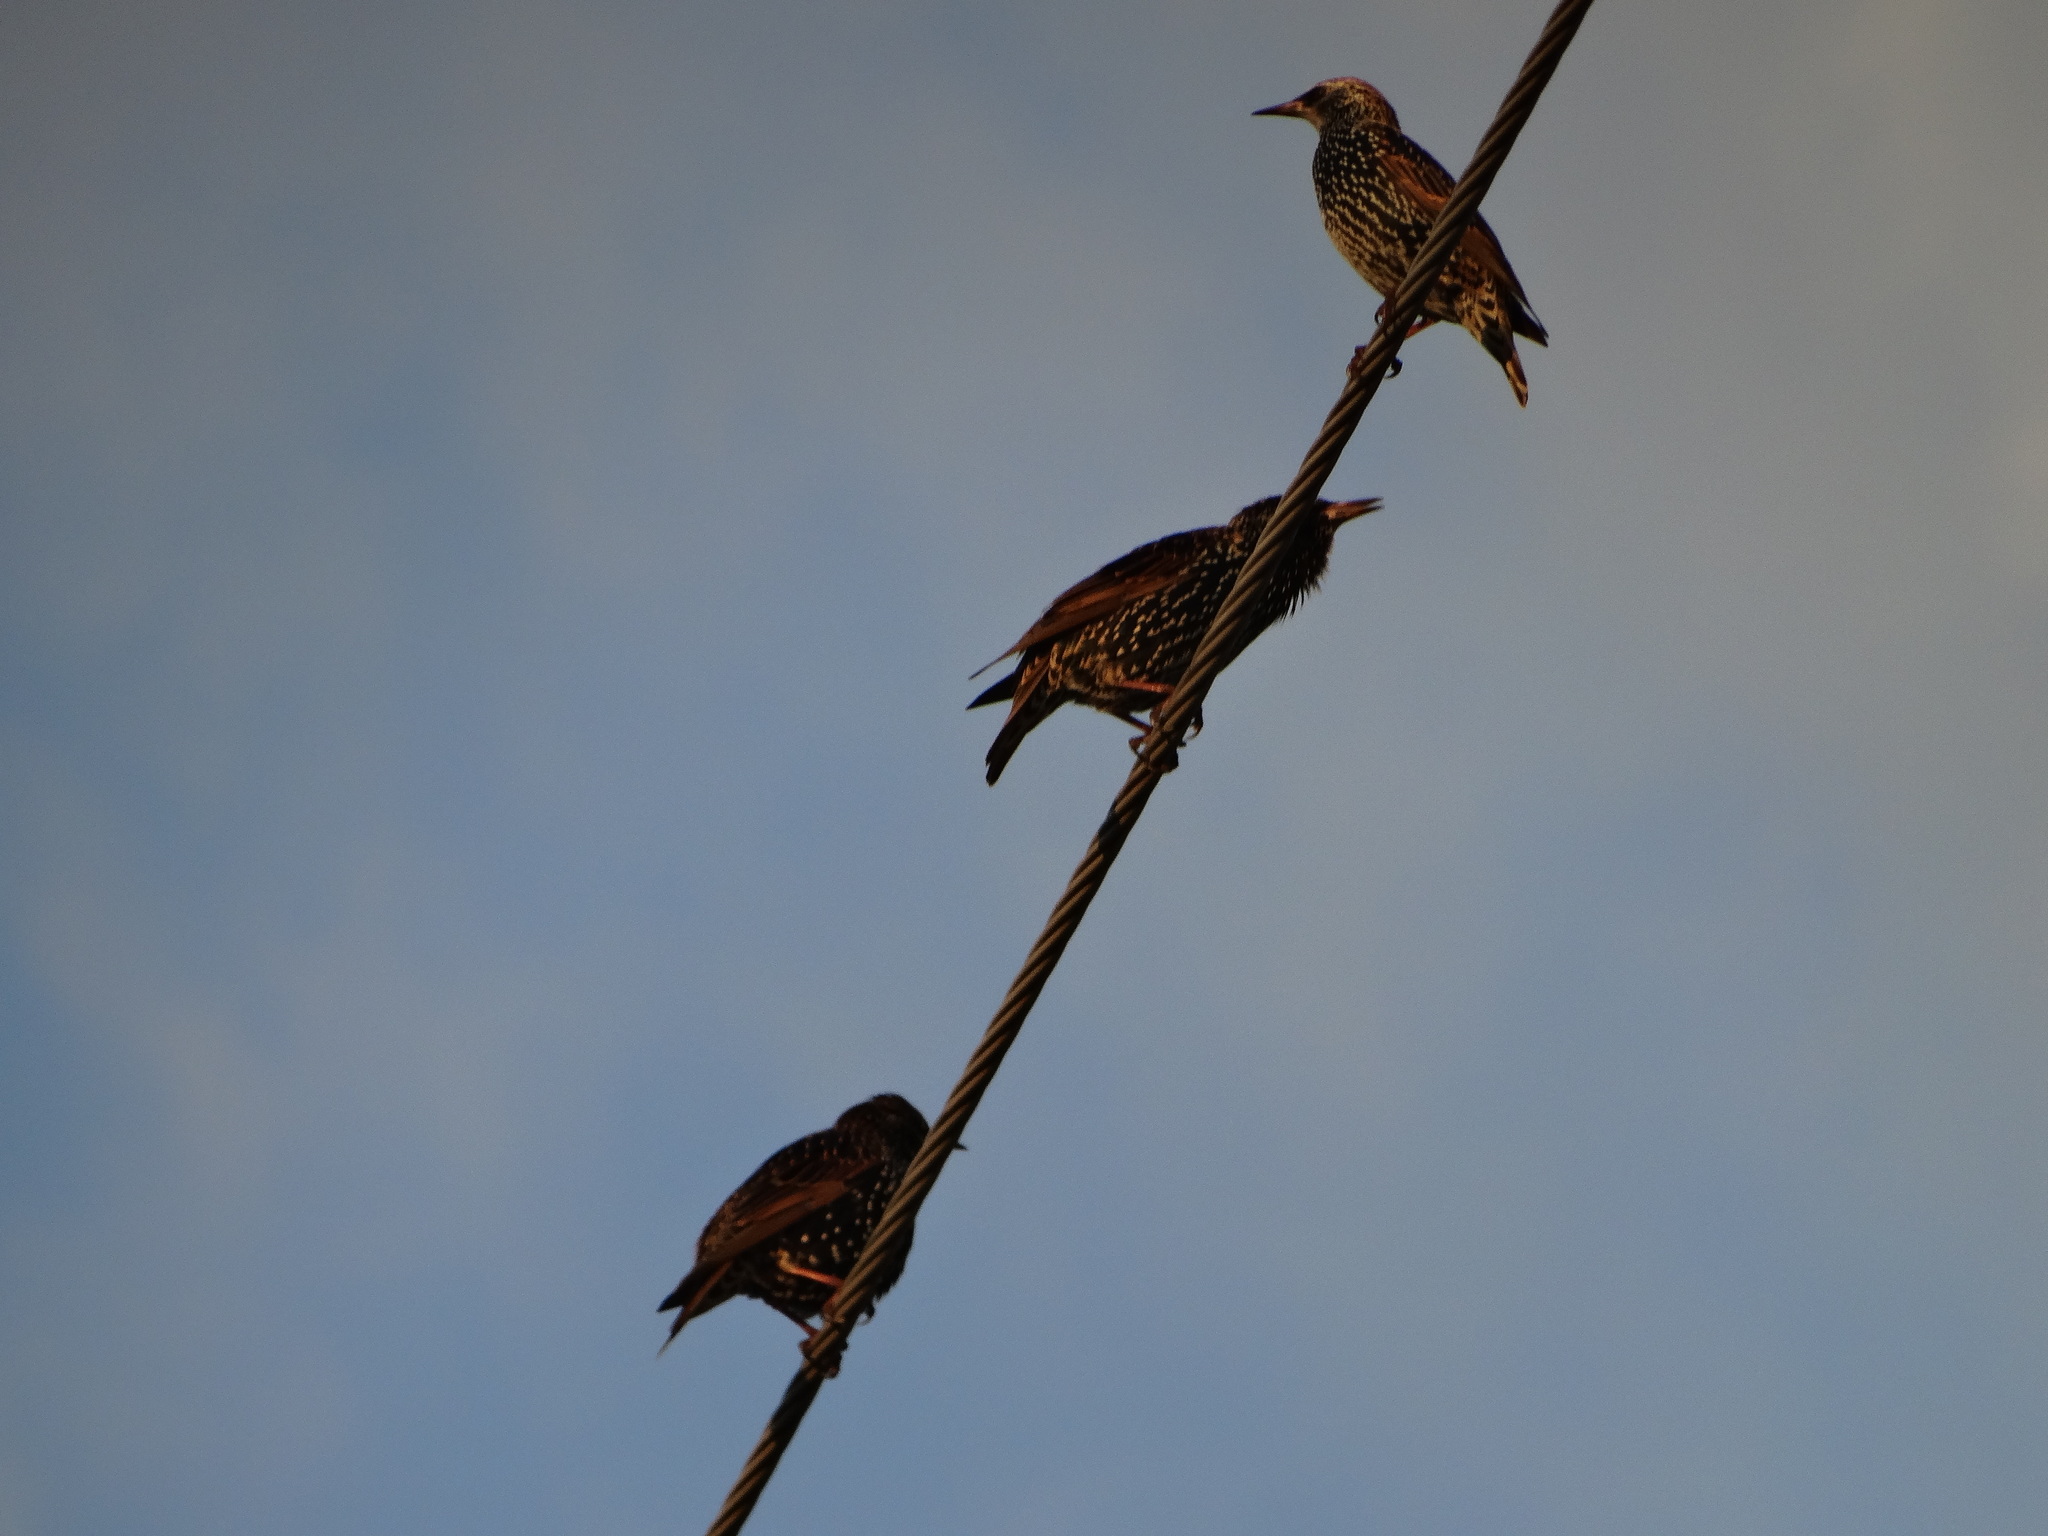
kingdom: Animalia
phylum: Chordata
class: Aves
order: Passeriformes
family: Sturnidae
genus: Sturnus
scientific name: Sturnus vulgaris
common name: Common starling
